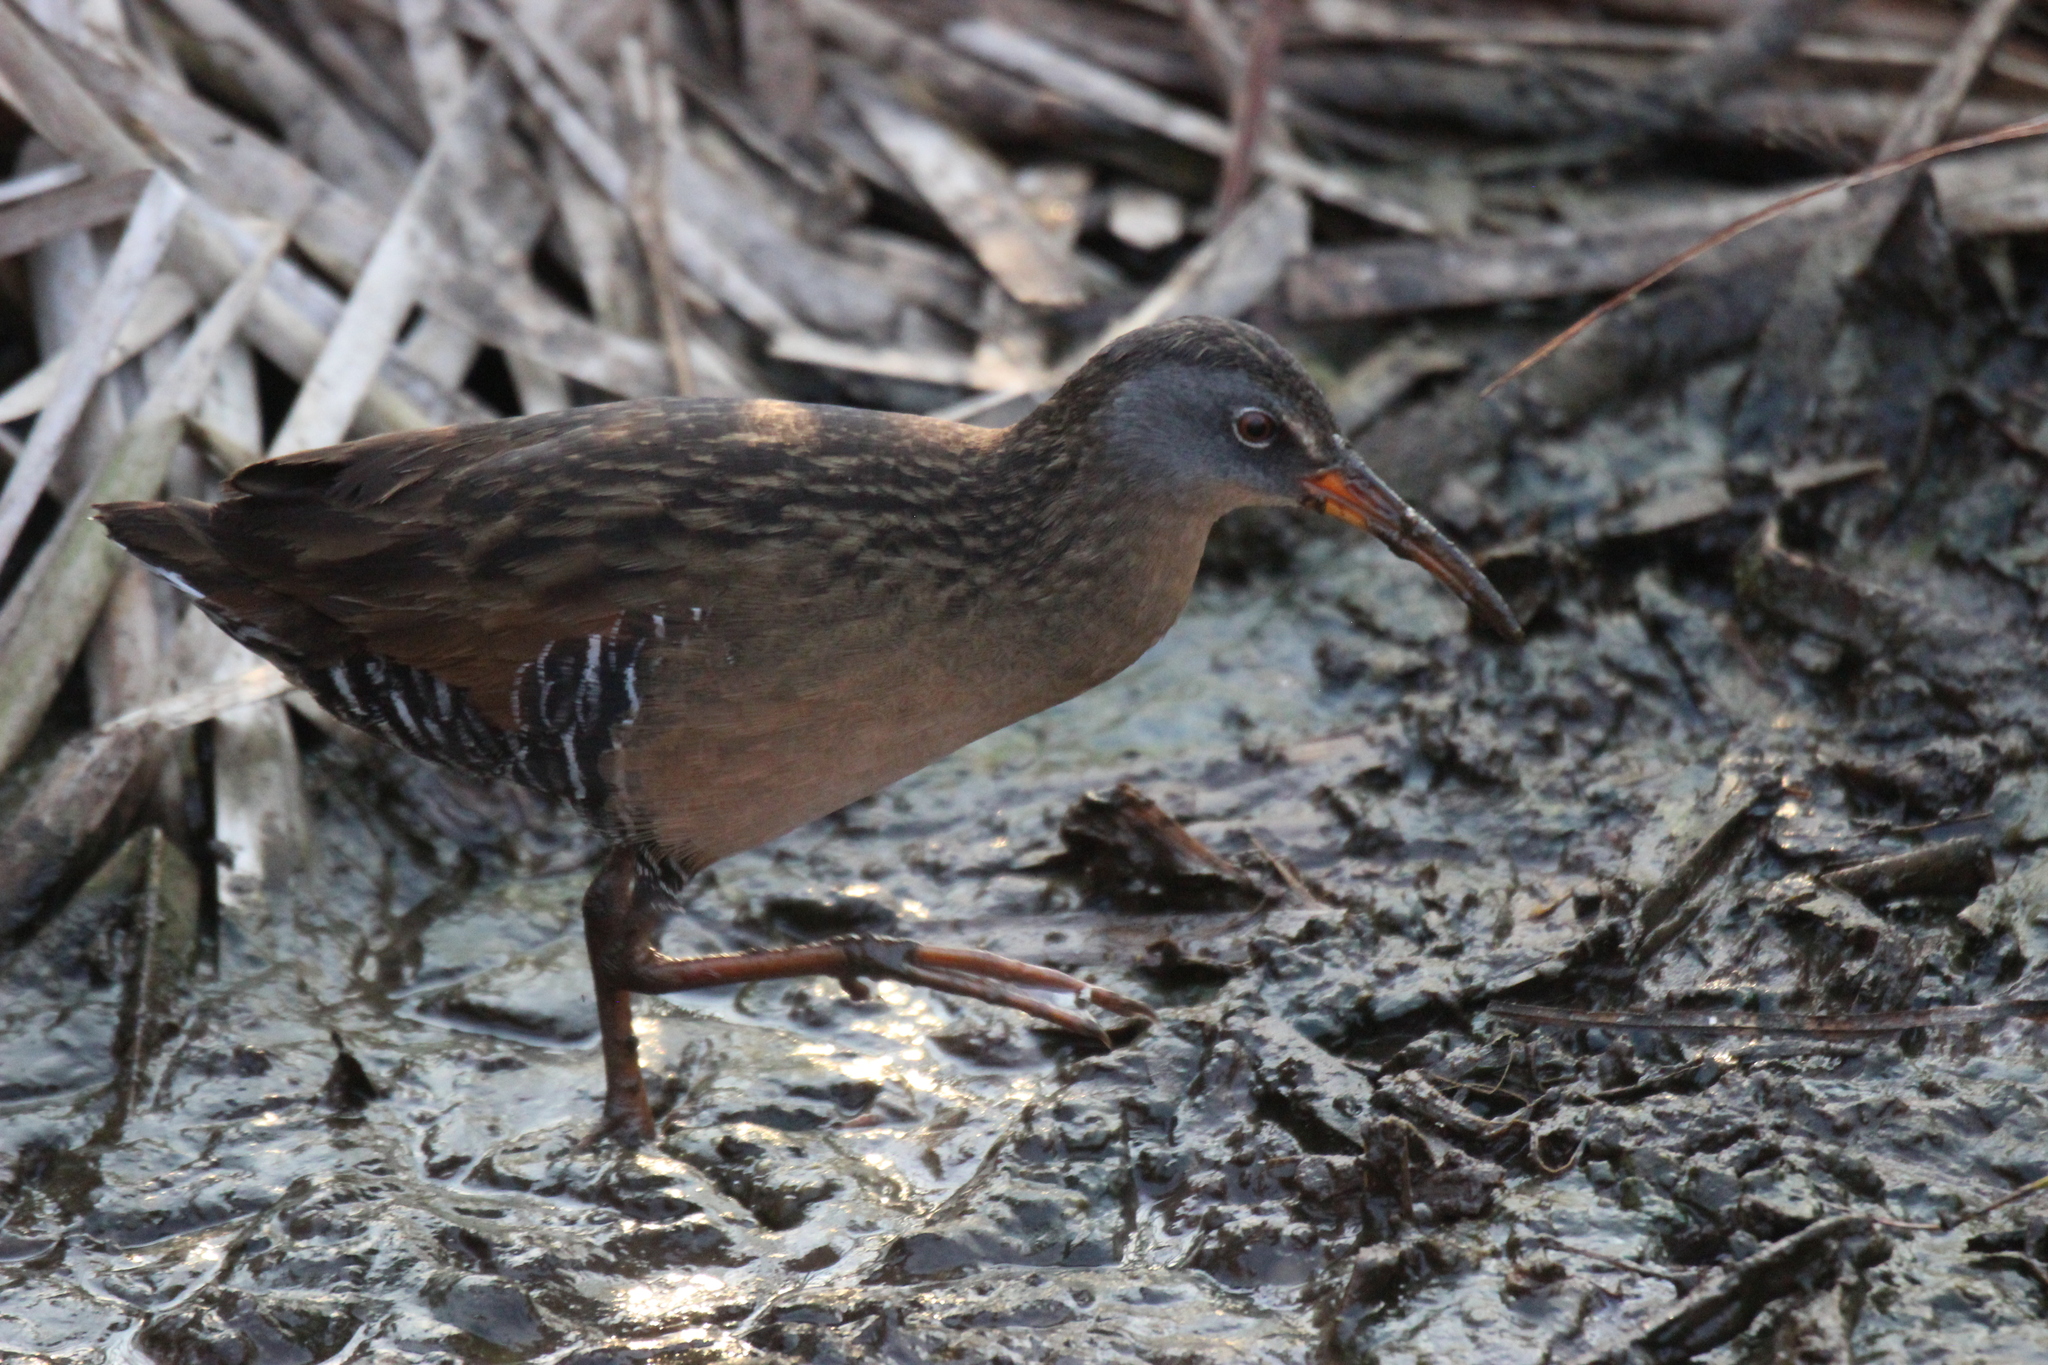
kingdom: Animalia
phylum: Chordata
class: Aves
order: Gruiformes
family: Rallidae
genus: Rallus
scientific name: Rallus limicola
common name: Virginia rail
